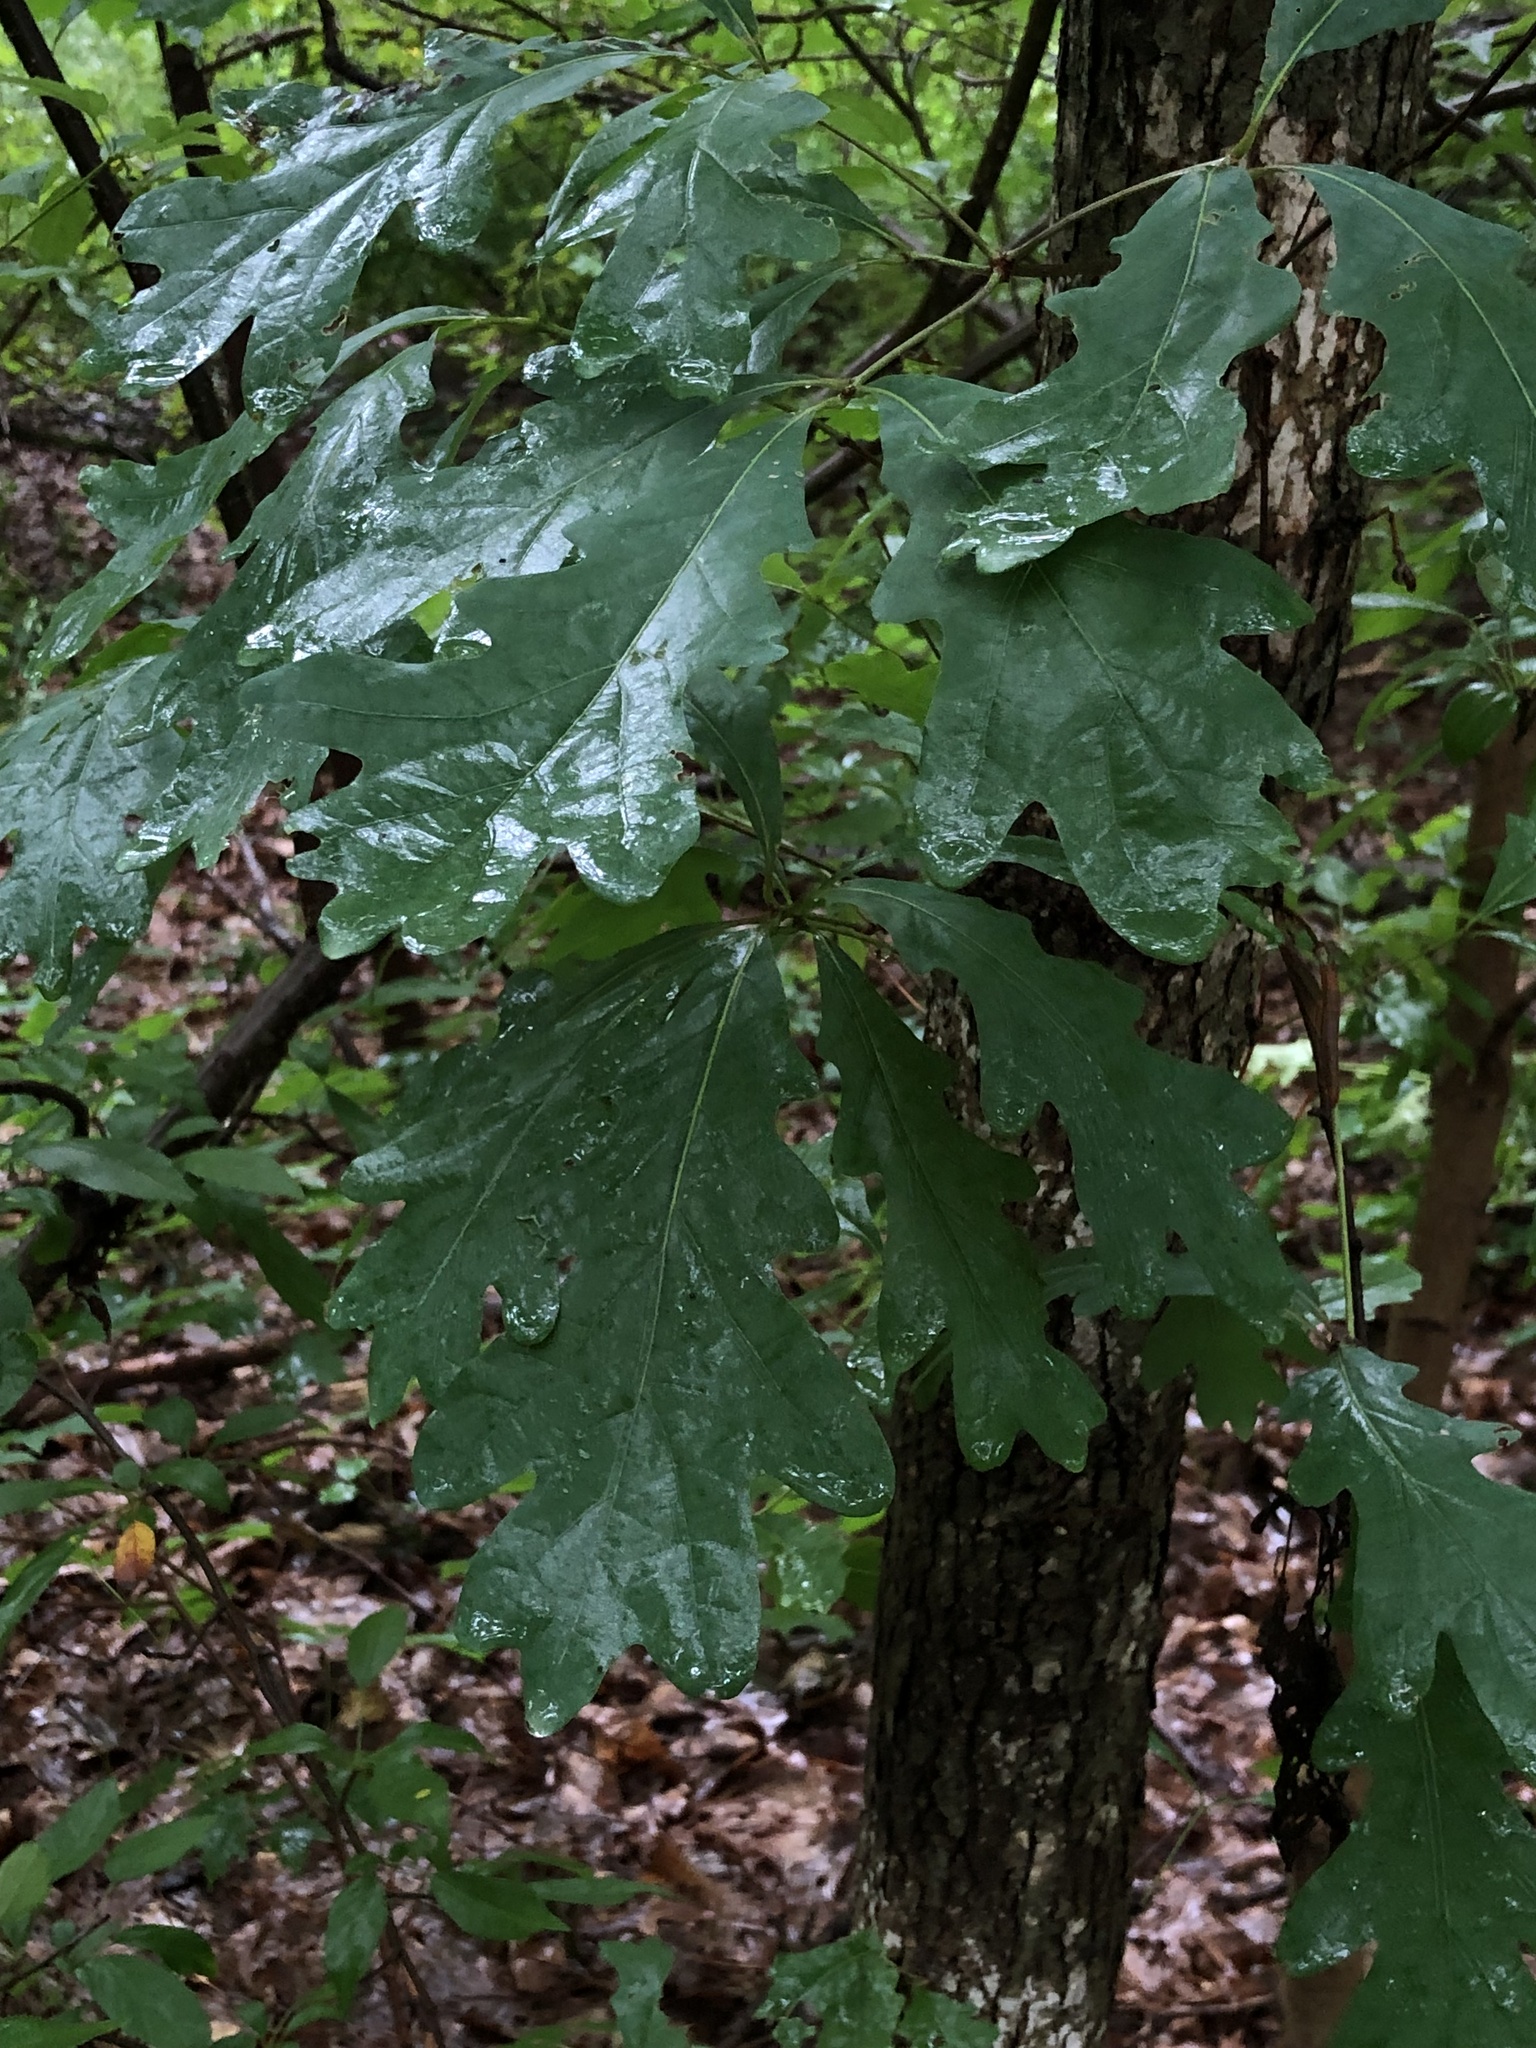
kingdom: Plantae
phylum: Tracheophyta
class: Magnoliopsida
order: Fagales
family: Fagaceae
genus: Quercus
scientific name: Quercus alba
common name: White oak
